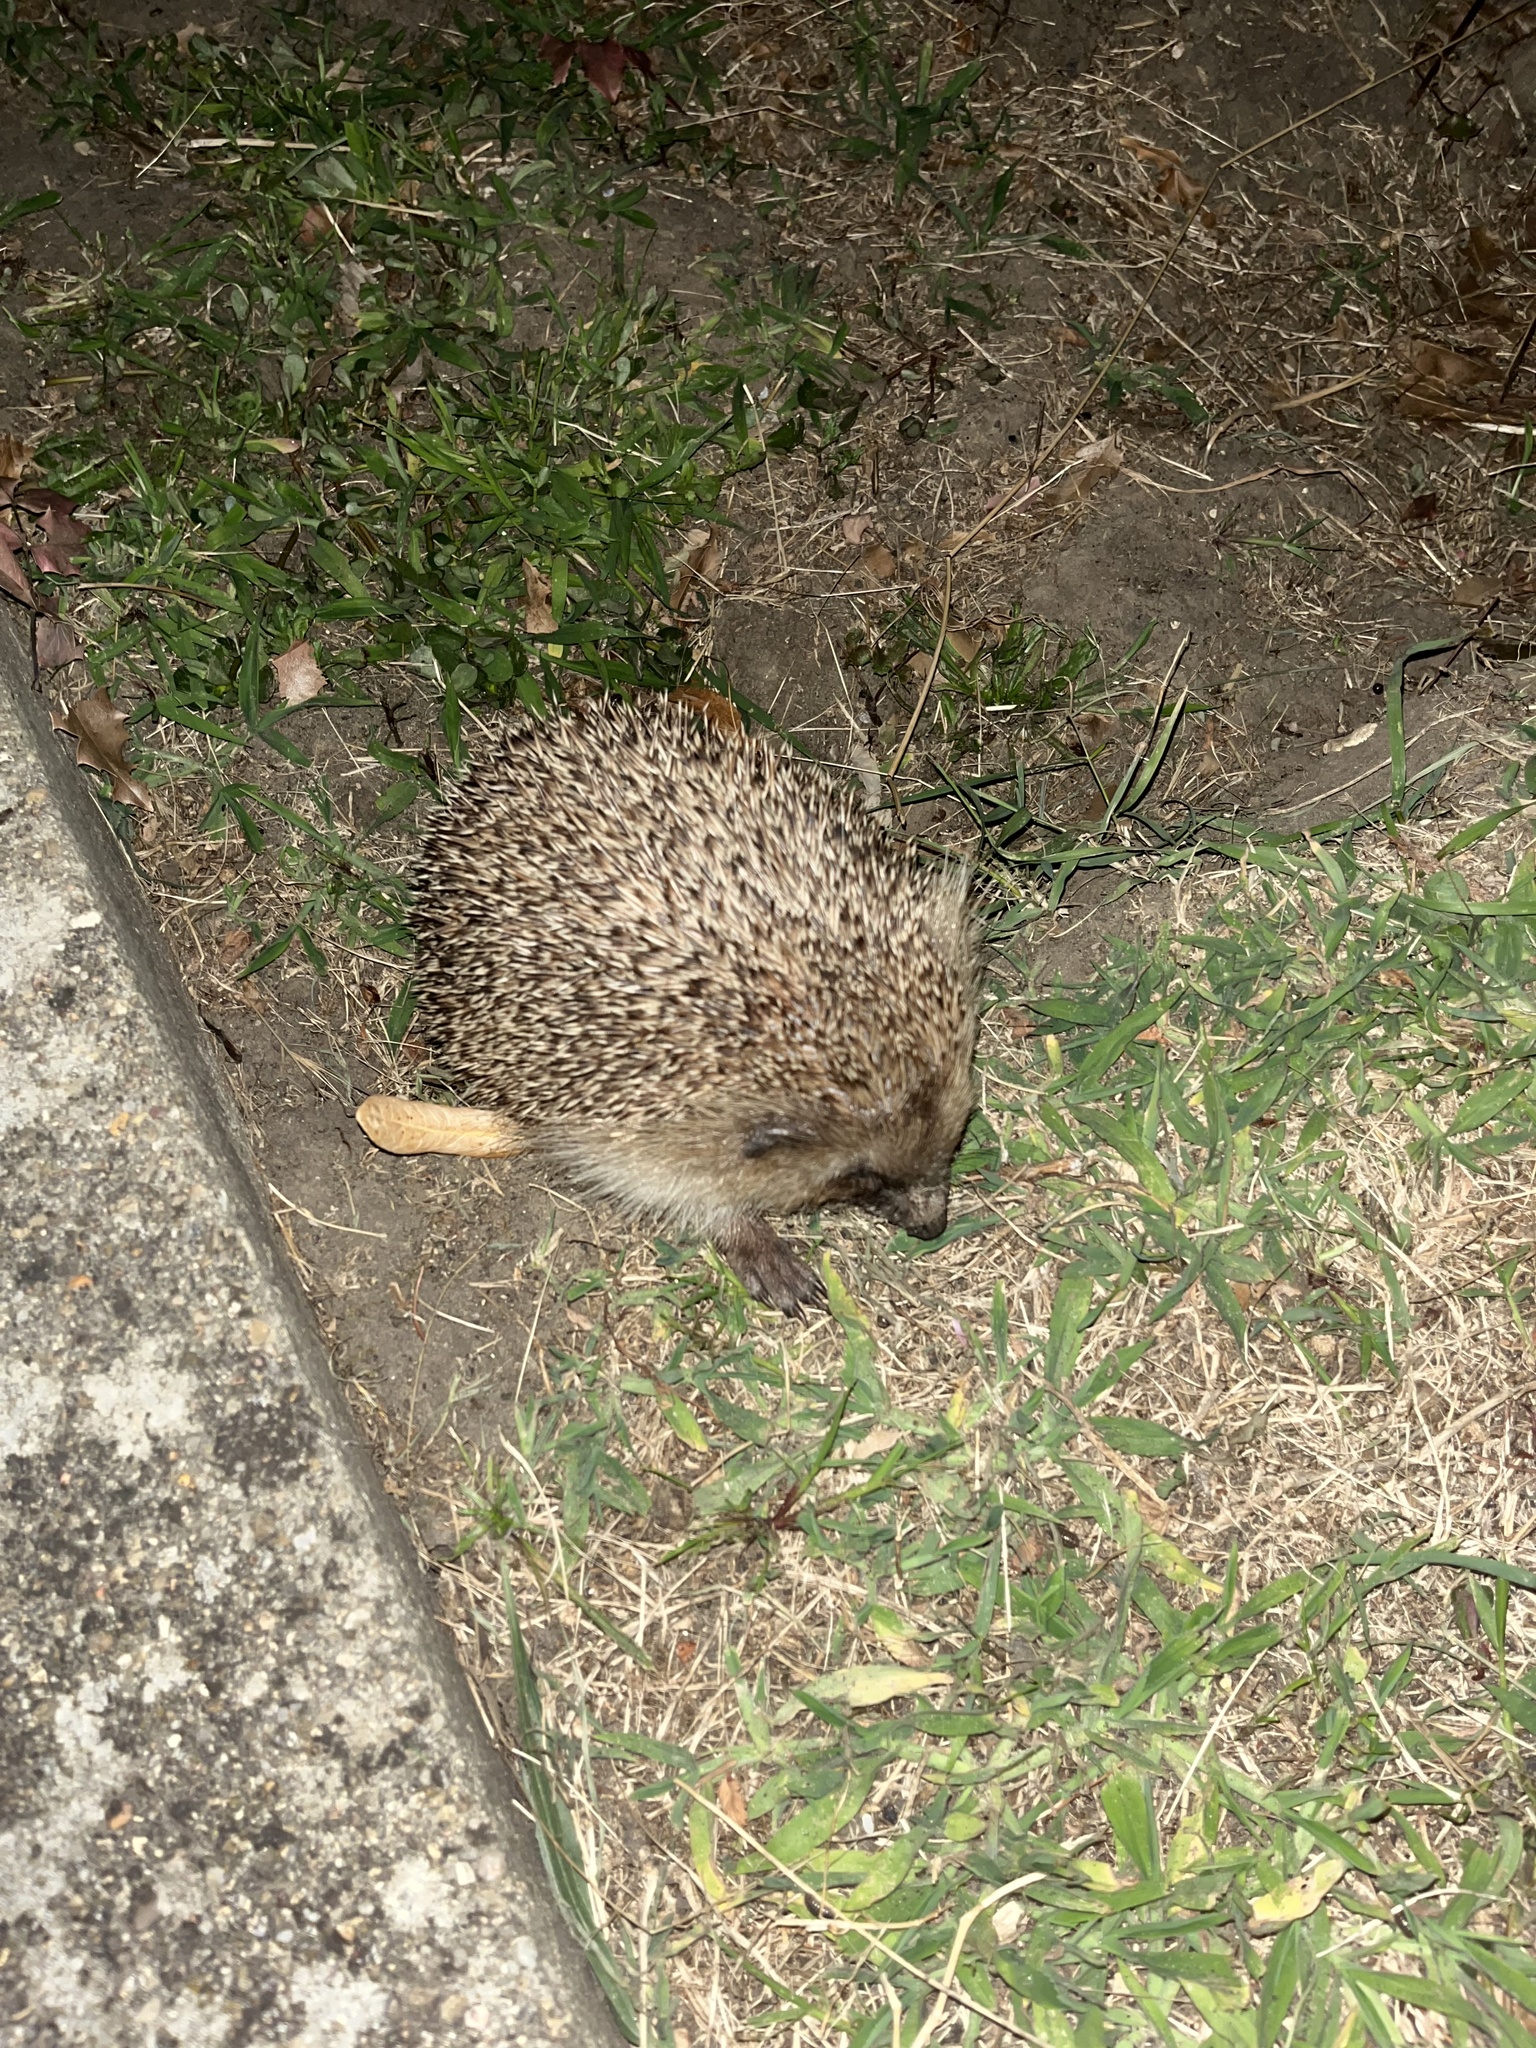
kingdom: Animalia
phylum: Chordata
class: Mammalia
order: Erinaceomorpha
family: Erinaceidae
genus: Erinaceus
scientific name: Erinaceus europaeus
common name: West european hedgehog
